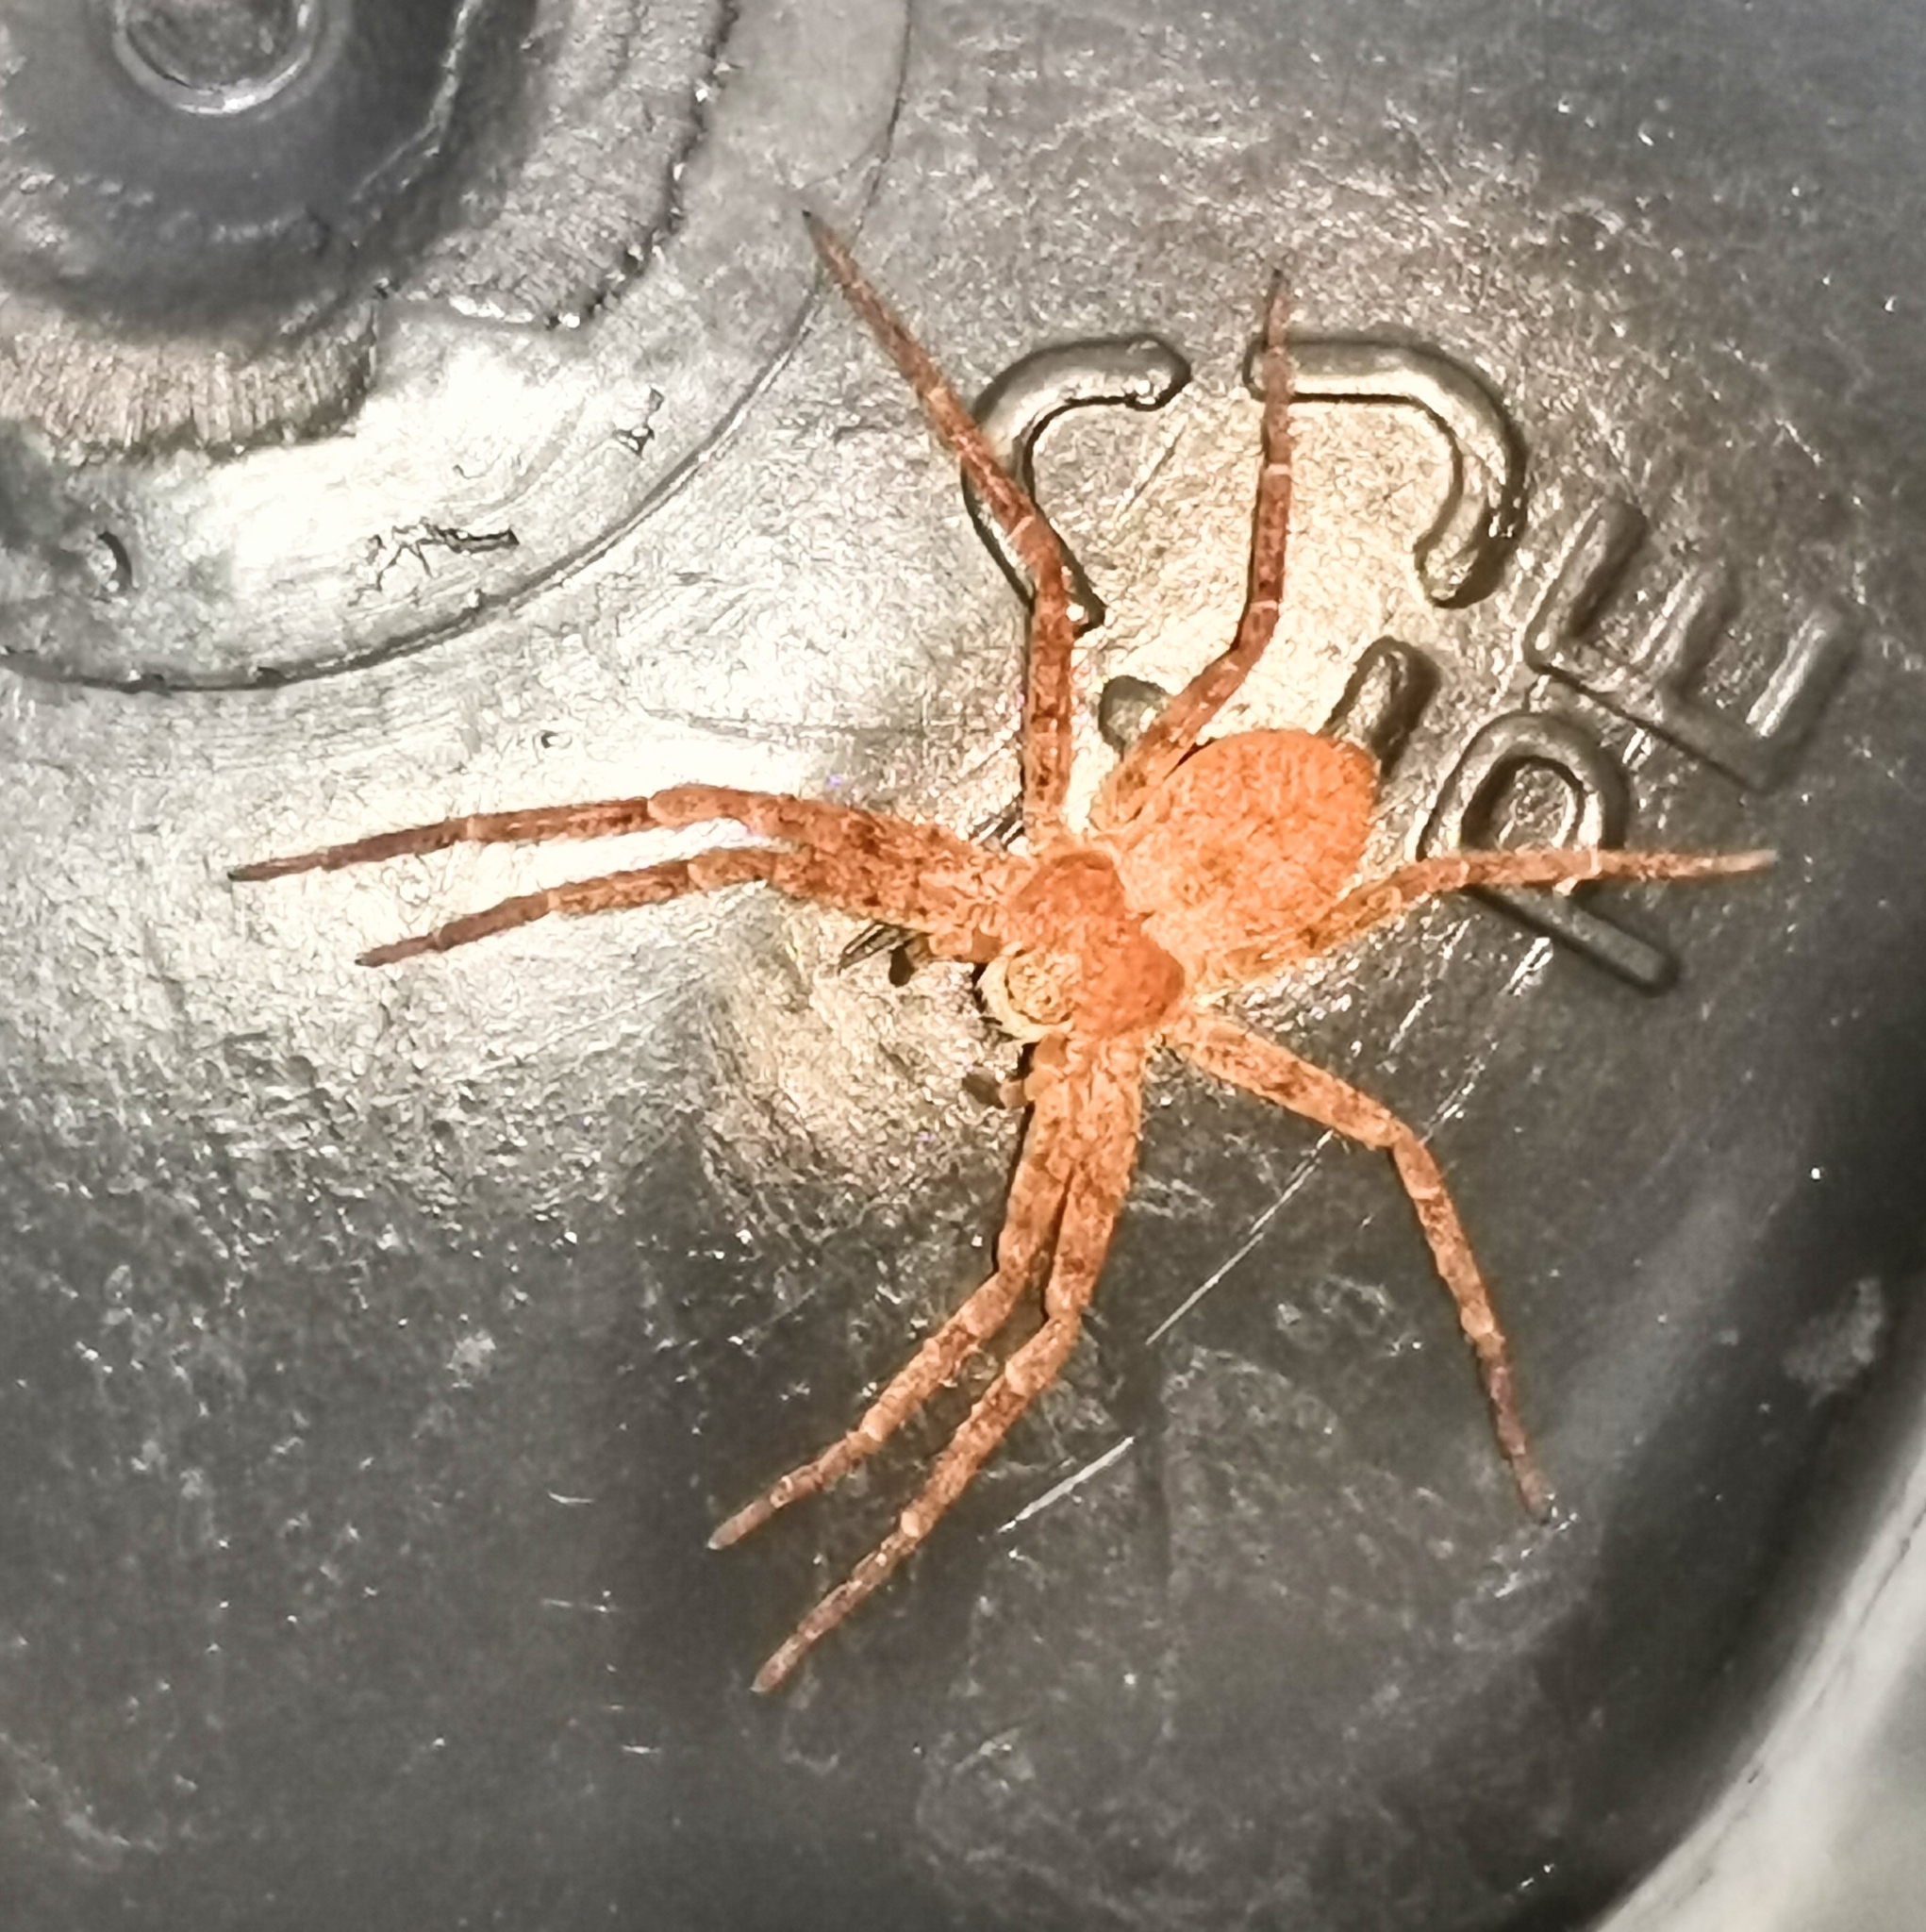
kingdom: Animalia
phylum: Arthropoda
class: Arachnida
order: Araneae
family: Philodromidae
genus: Philodromus
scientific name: Philodromus fuscomarginatus
